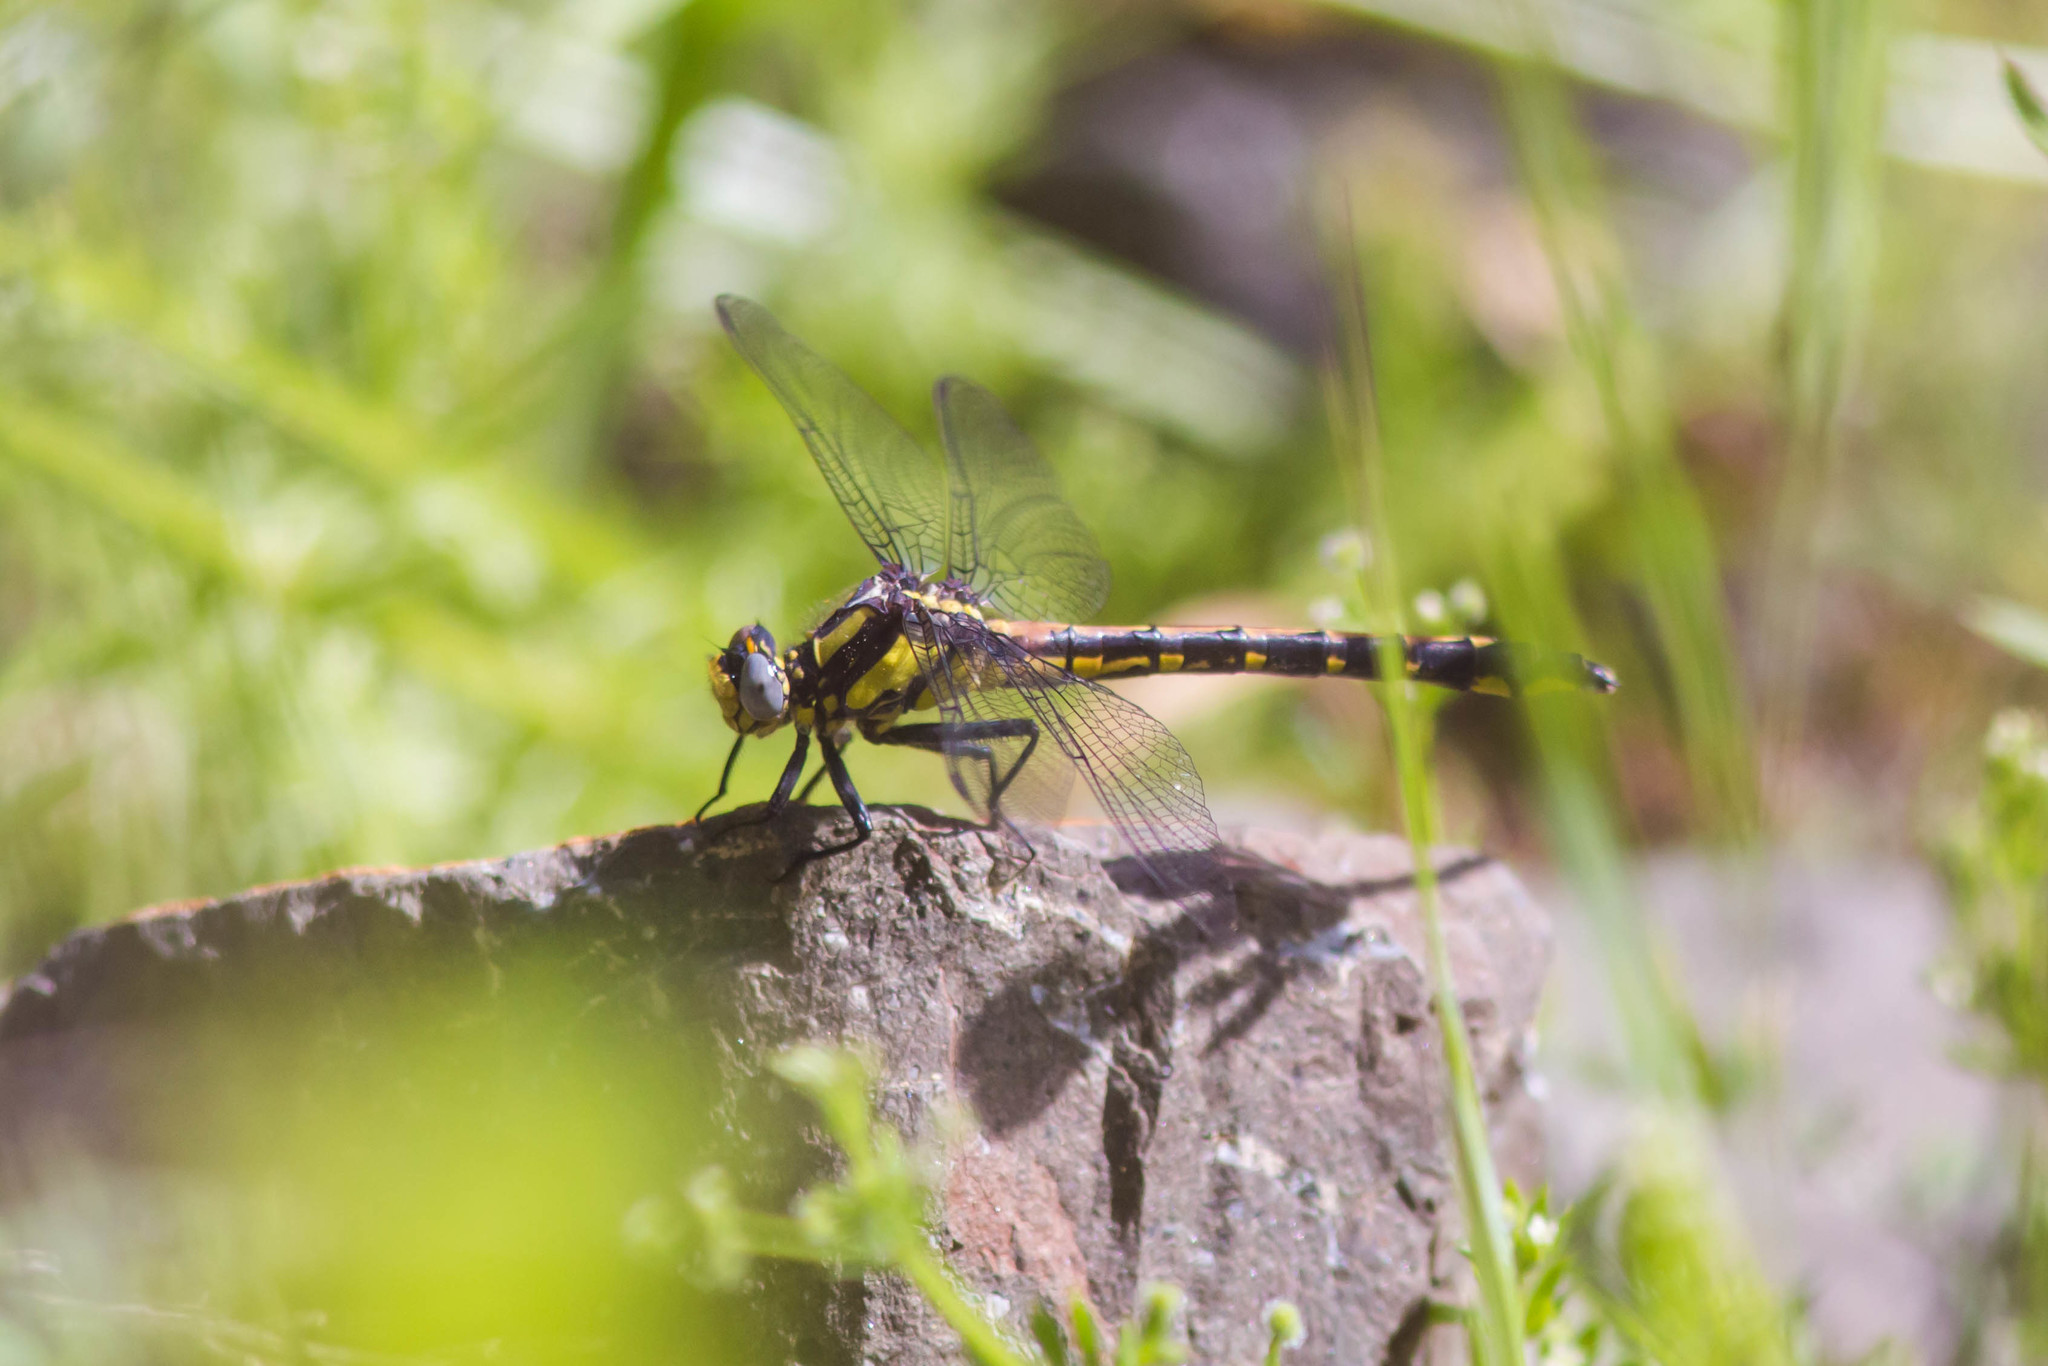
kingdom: Animalia
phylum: Arthropoda
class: Insecta
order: Odonata
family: Gomphidae
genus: Phanogomphus
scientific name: Phanogomphus kurilis
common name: Pacific clubtail
